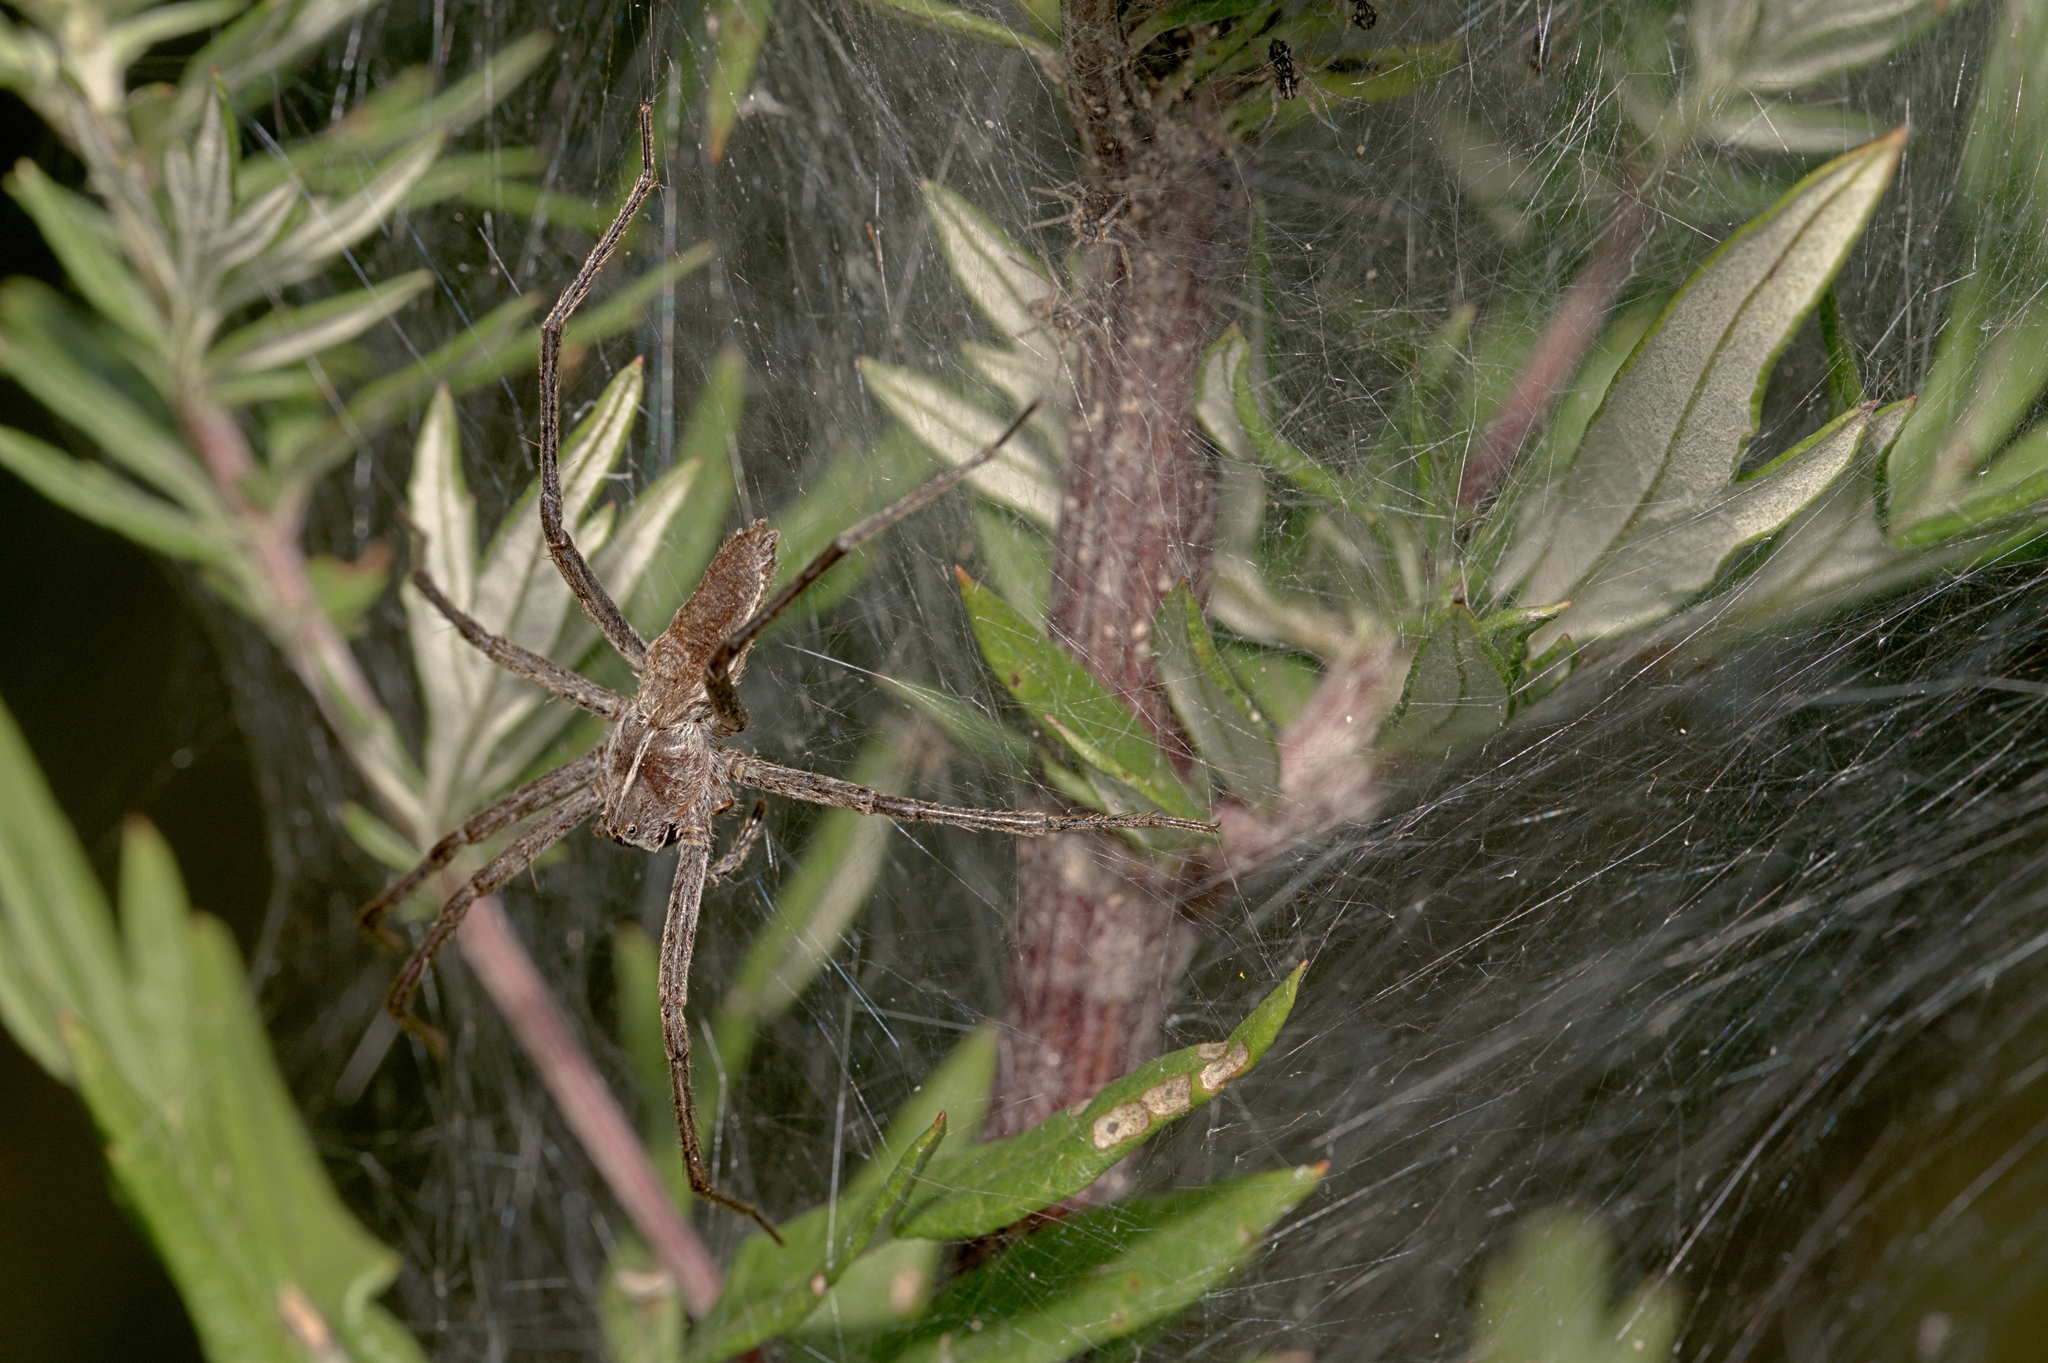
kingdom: Animalia
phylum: Arthropoda
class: Arachnida
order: Araneae
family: Pisauridae
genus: Pisaura
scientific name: Pisaura mirabilis
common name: Tent spider
